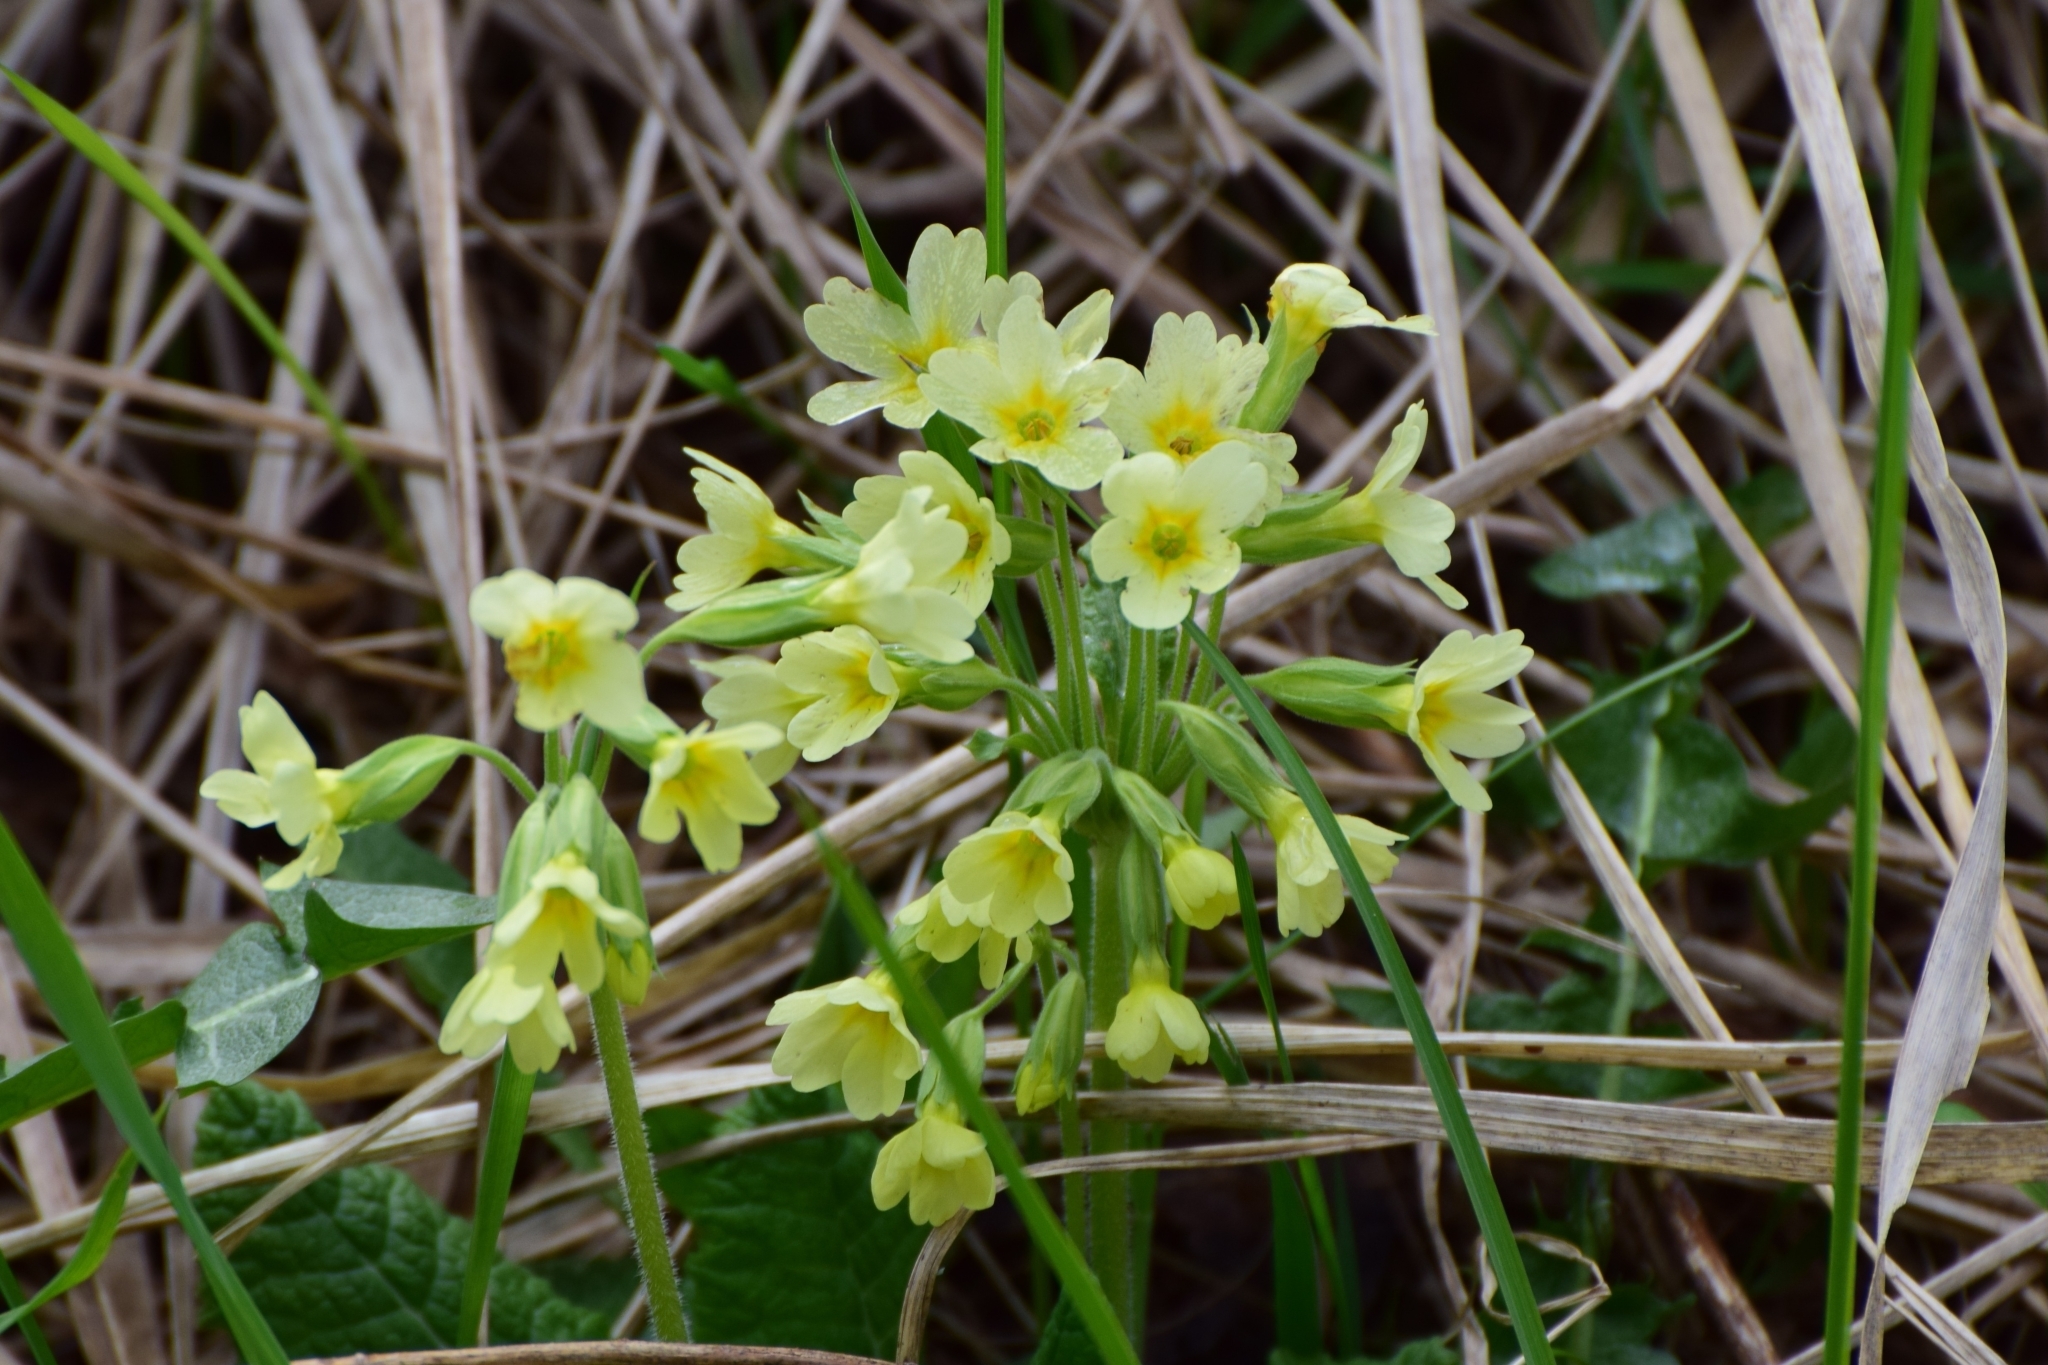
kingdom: Plantae
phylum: Tracheophyta
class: Magnoliopsida
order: Ericales
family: Primulaceae
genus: Primula
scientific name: Primula elatior
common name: Oxlip
